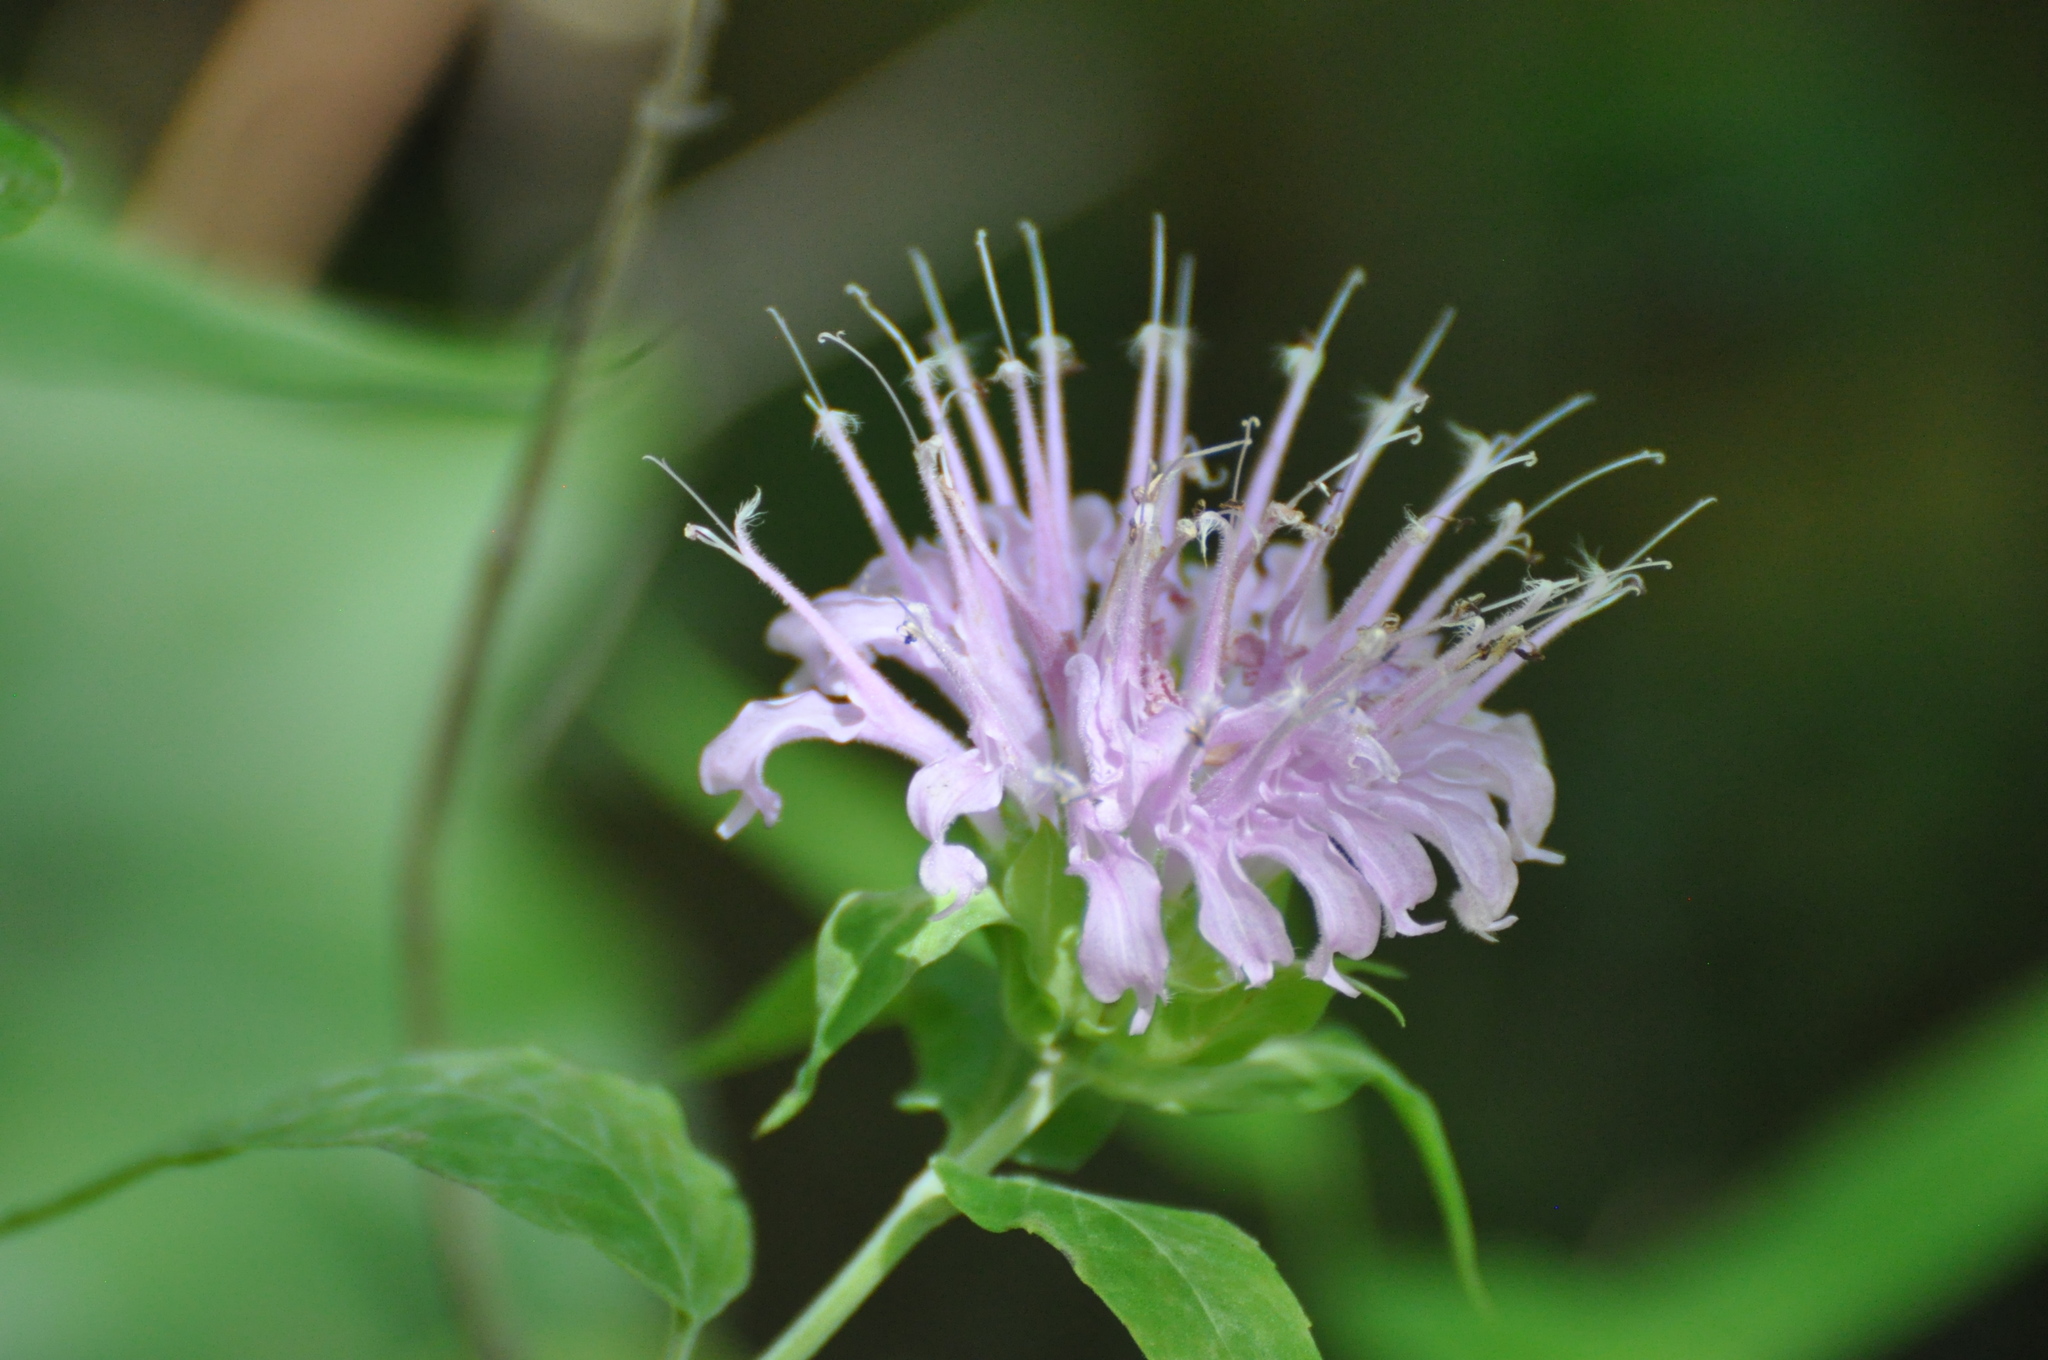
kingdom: Plantae
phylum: Tracheophyta
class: Magnoliopsida
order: Lamiales
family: Lamiaceae
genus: Monarda
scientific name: Monarda fistulosa
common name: Purple beebalm
